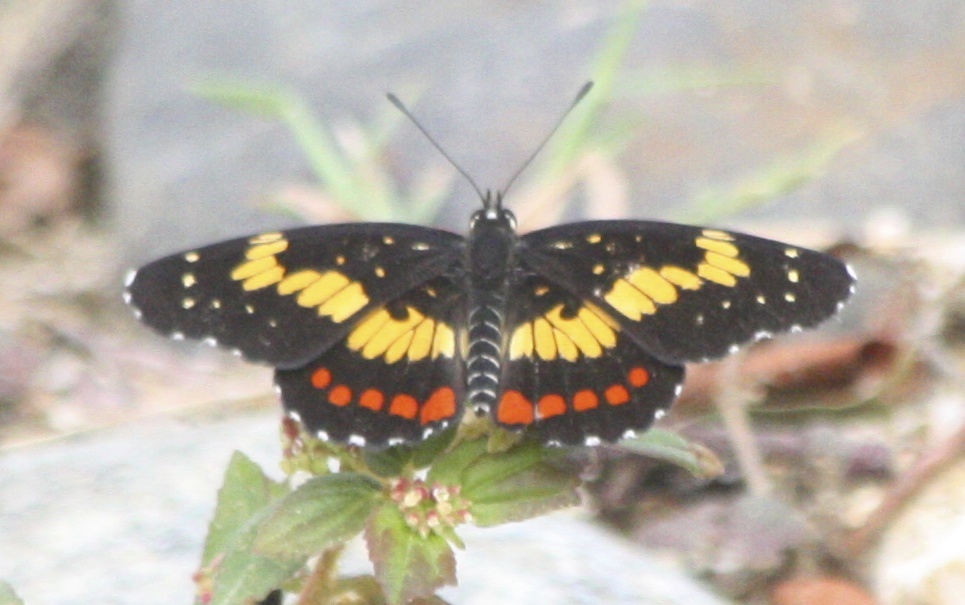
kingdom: Animalia
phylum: Arthropoda
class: Insecta
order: Lepidoptera
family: Nymphalidae
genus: Chlosyne
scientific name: Chlosyne eumeda
